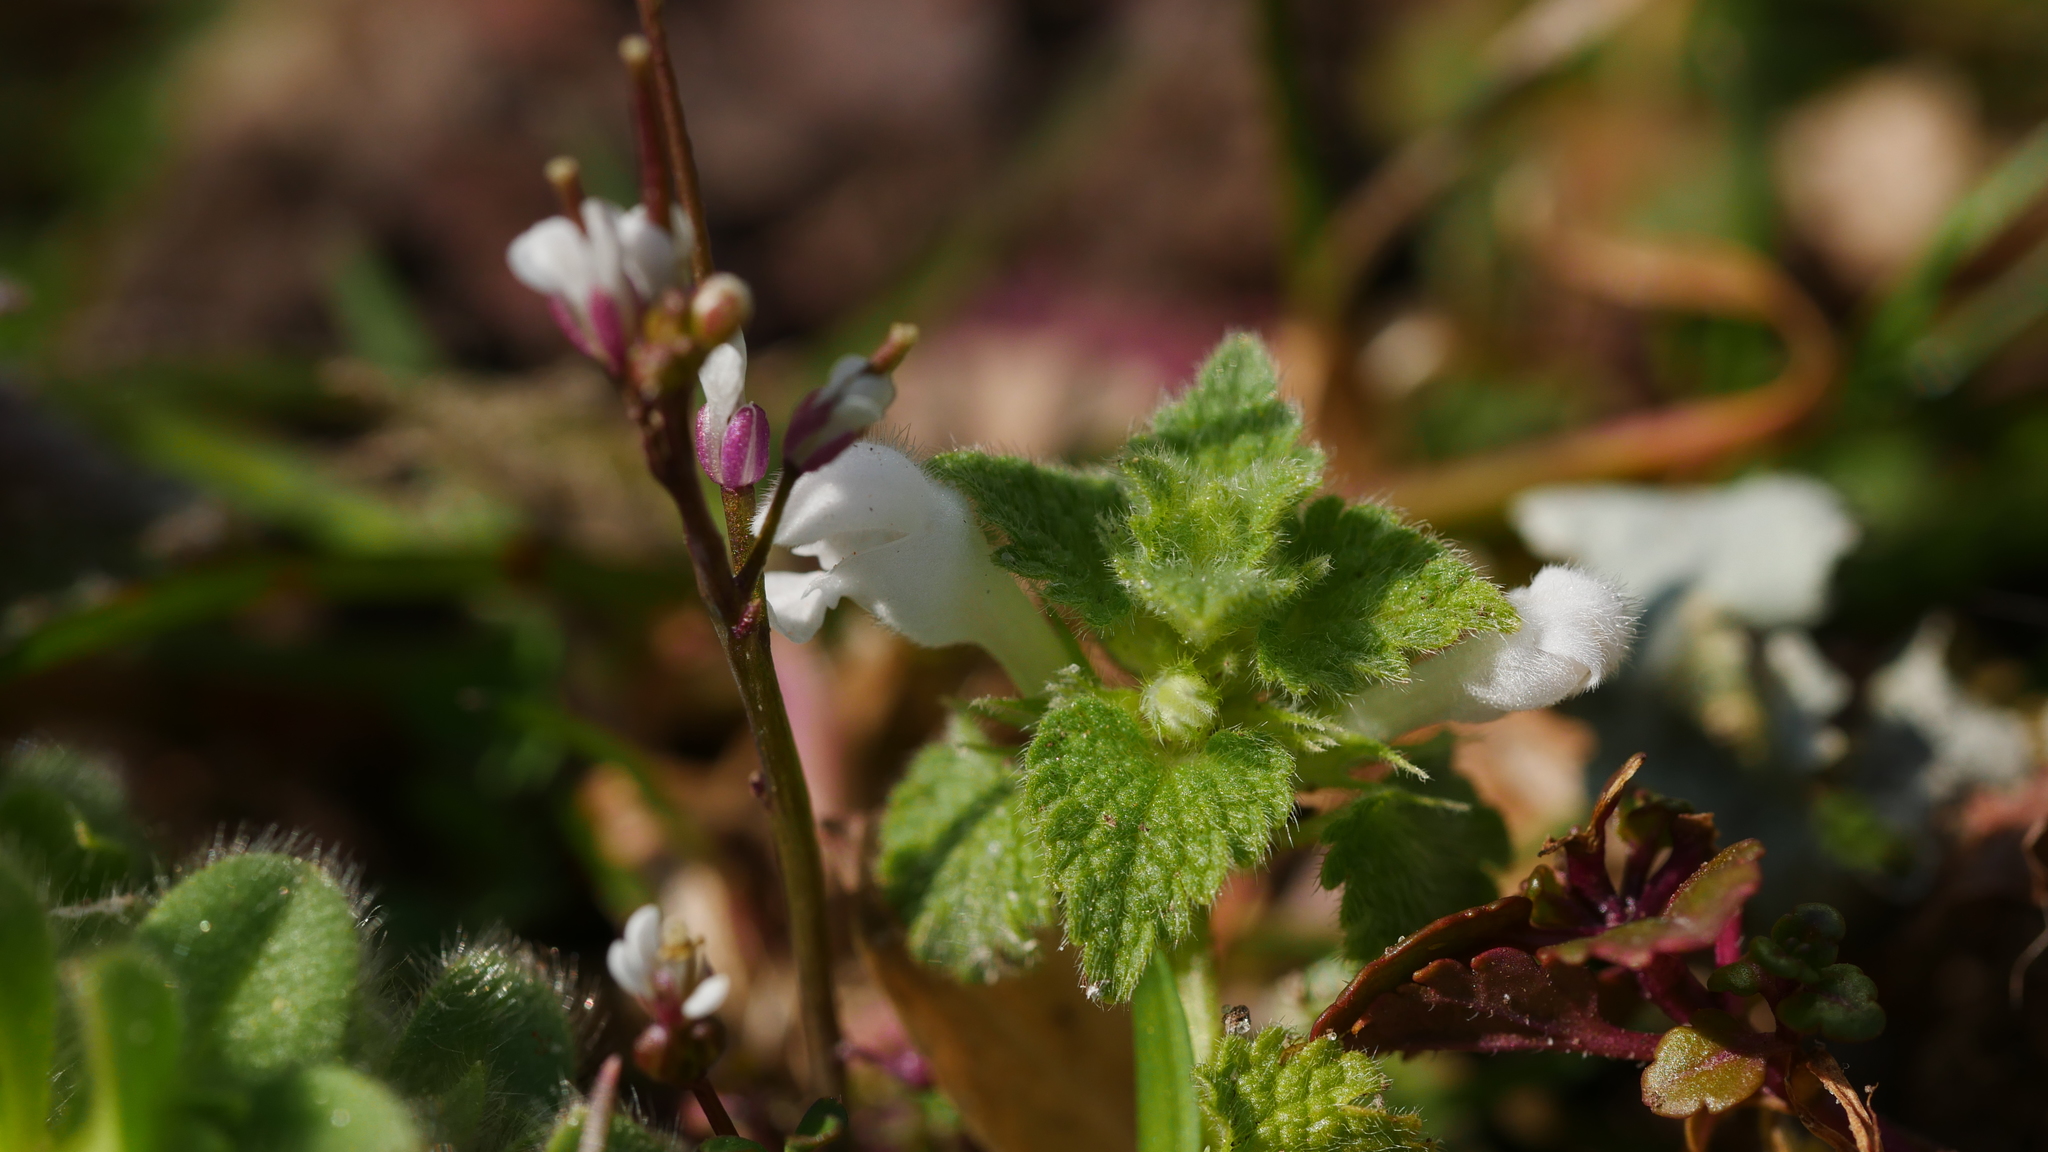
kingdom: Plantae
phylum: Tracheophyta
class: Magnoliopsida
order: Lamiales
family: Lamiaceae
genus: Lamium
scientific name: Lamium purpureum
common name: Red dead-nettle
